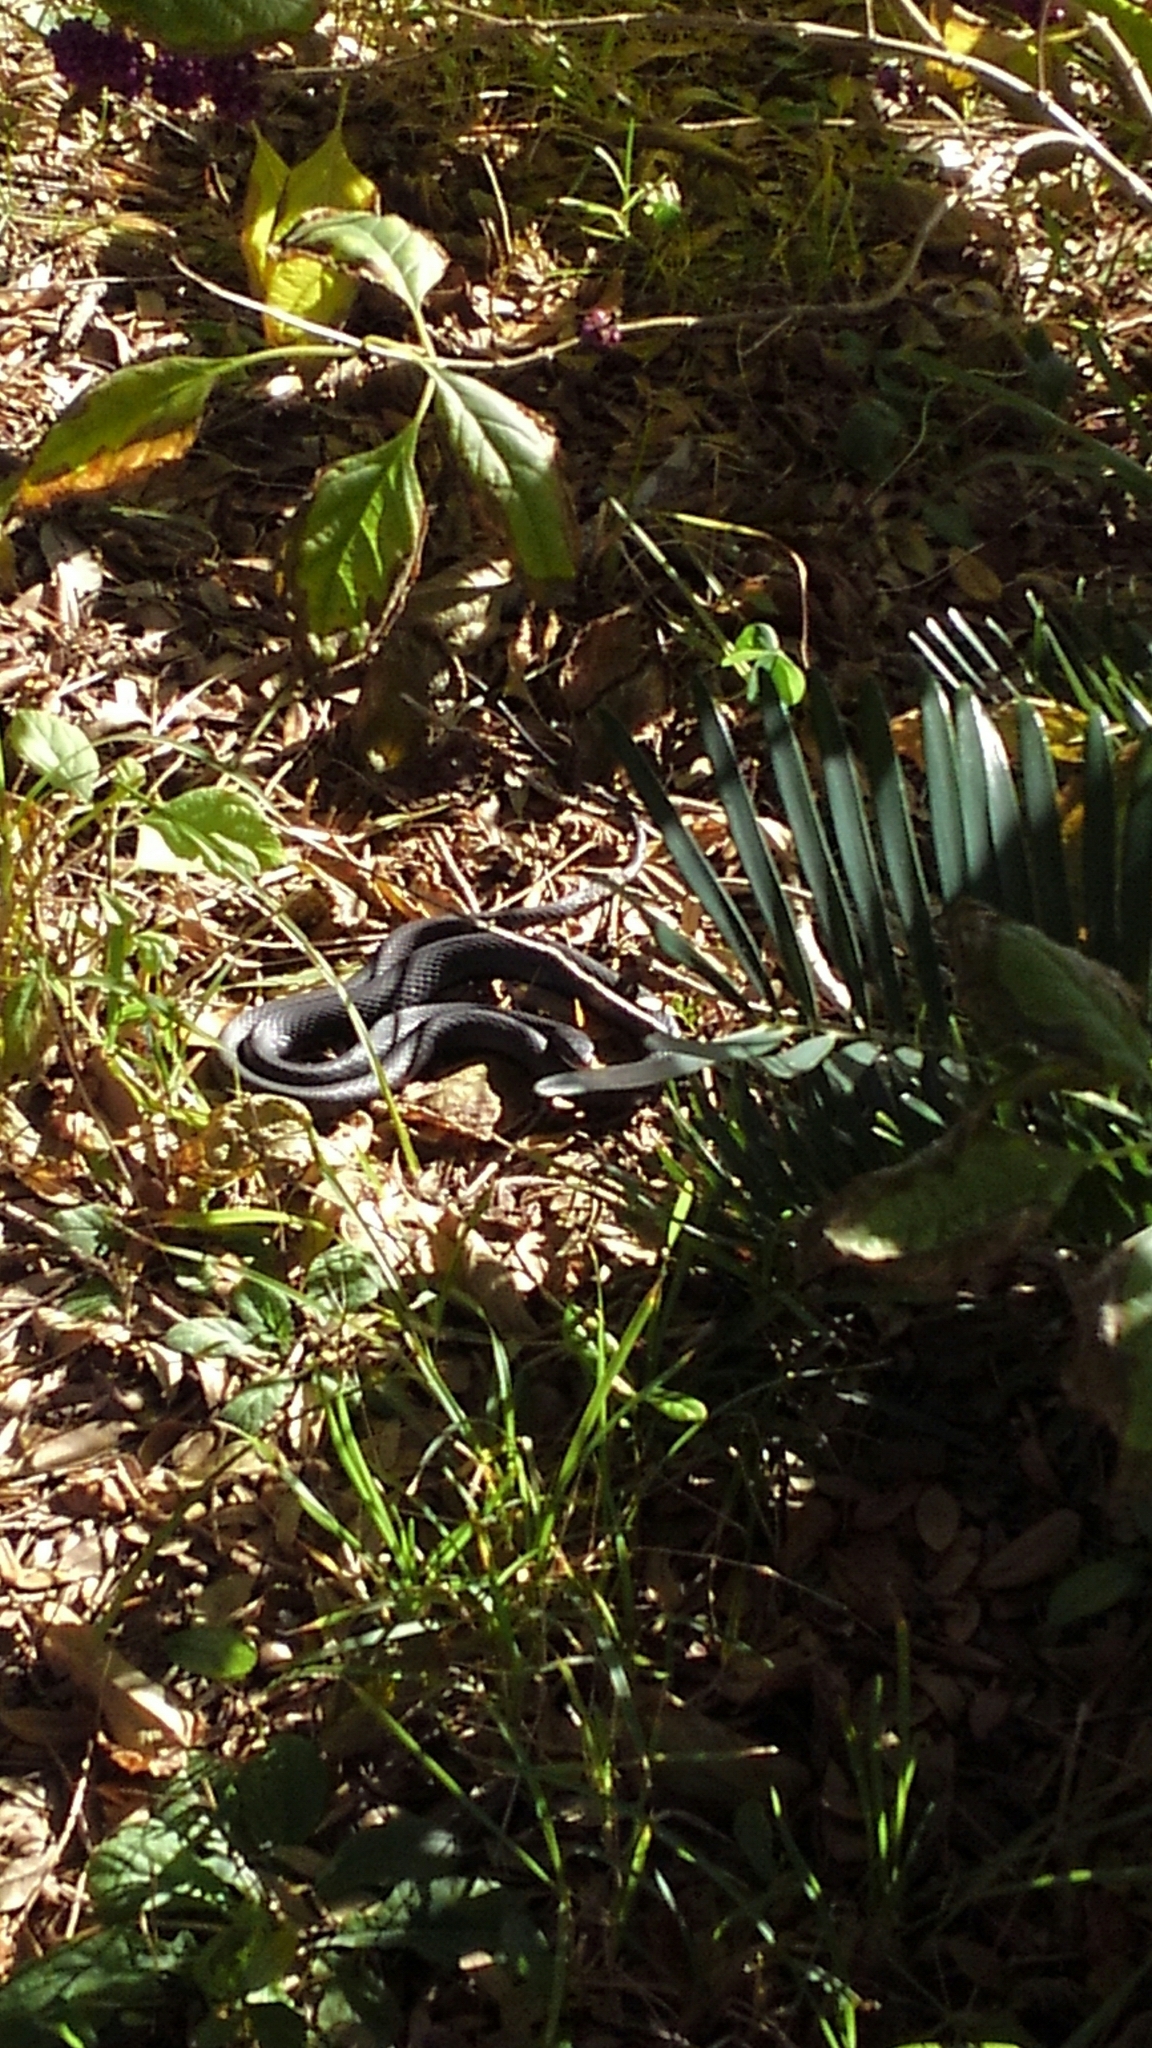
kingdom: Animalia
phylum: Chordata
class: Squamata
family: Colubridae
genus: Coluber
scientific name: Coluber constrictor
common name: Eastern racer
